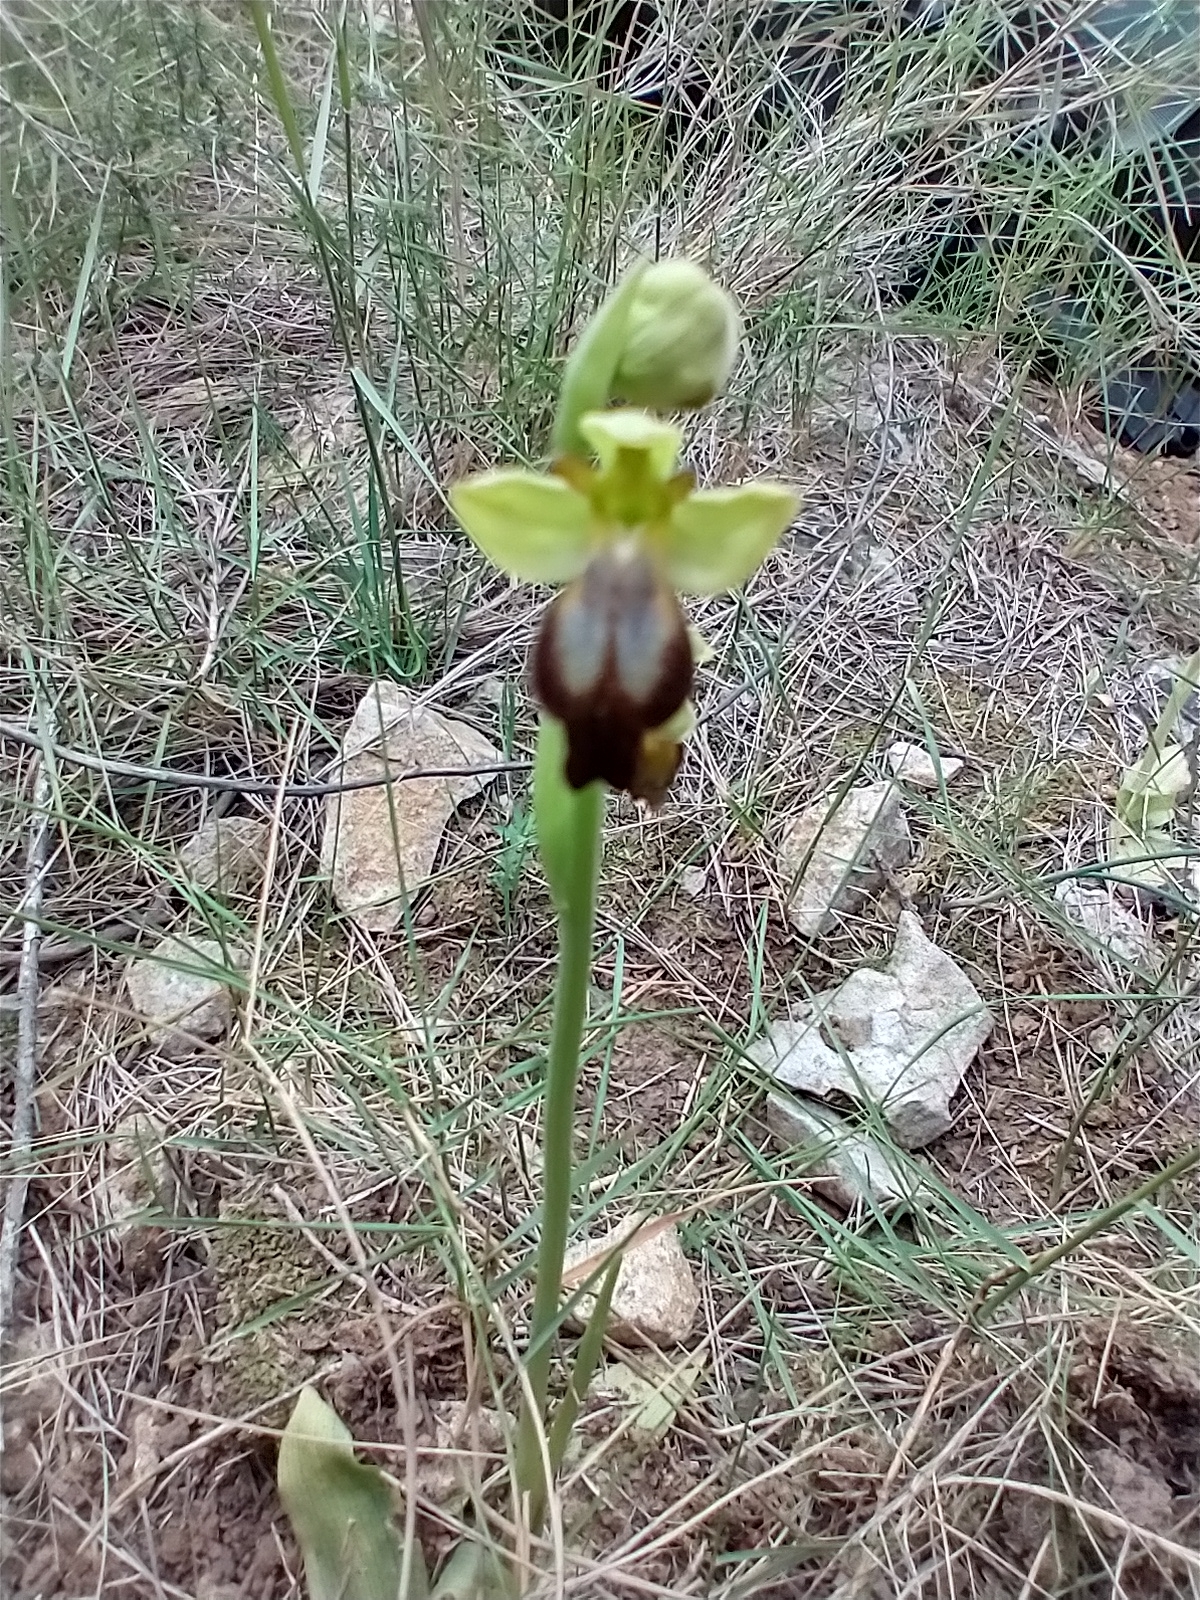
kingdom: Plantae
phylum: Tracheophyta
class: Liliopsida
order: Asparagales
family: Orchidaceae
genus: Ophrys
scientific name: Ophrys fusca
